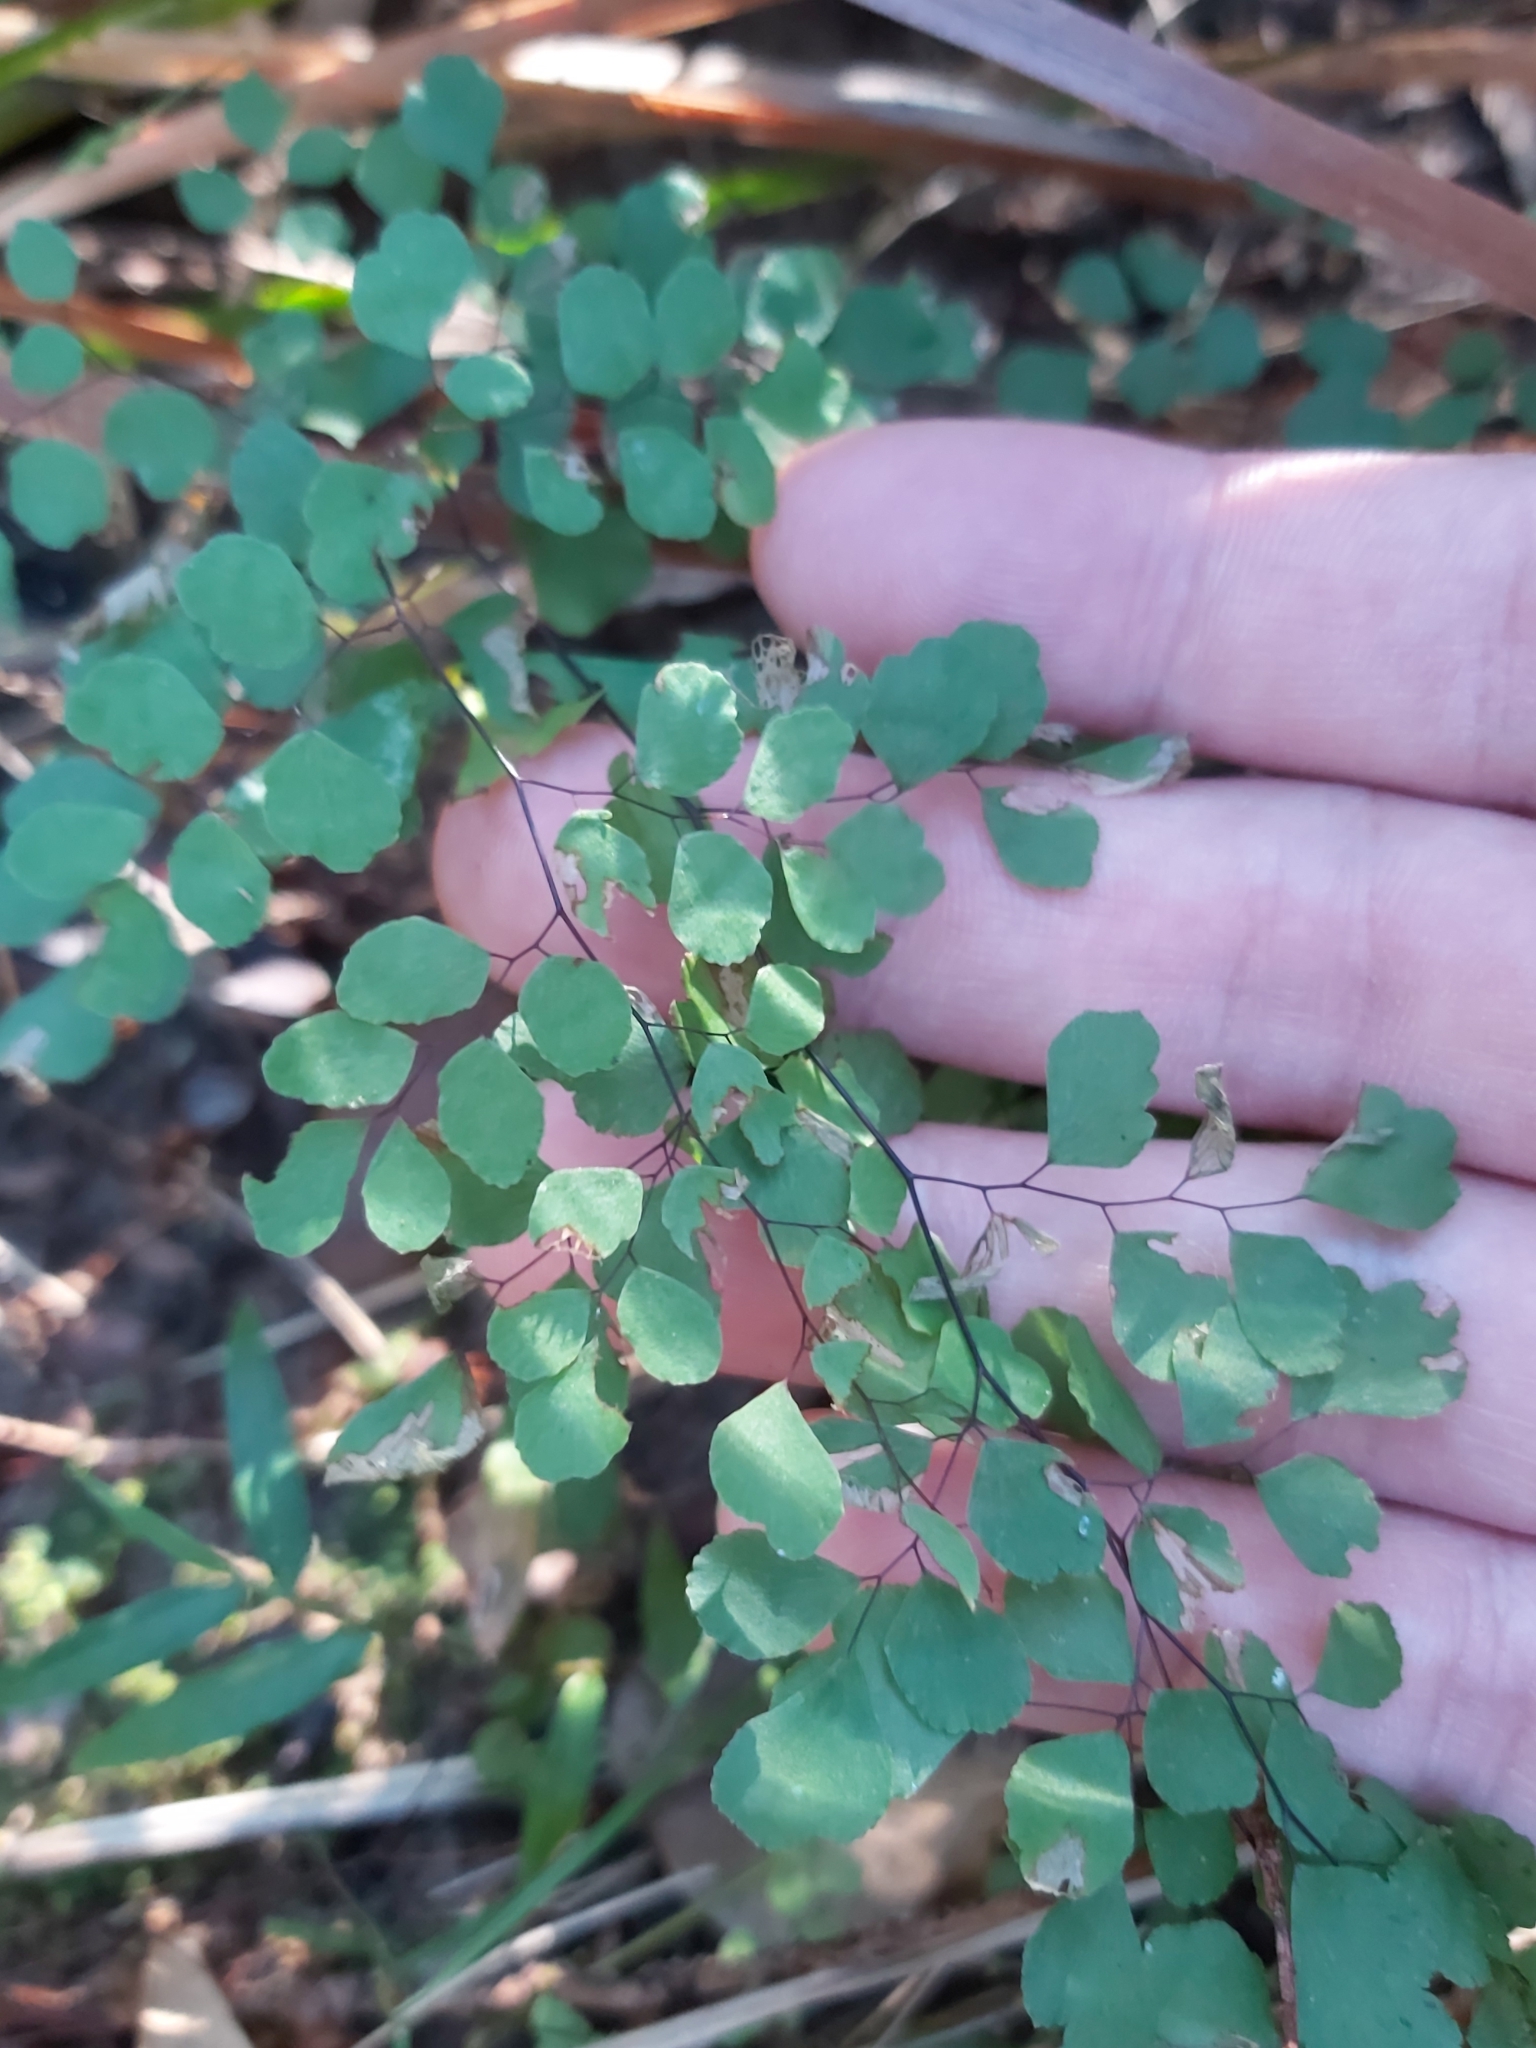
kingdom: Plantae
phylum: Tracheophyta
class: Polypodiopsida
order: Polypodiales
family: Pteridaceae
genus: Adiantum
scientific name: Adiantum aethiopicum
